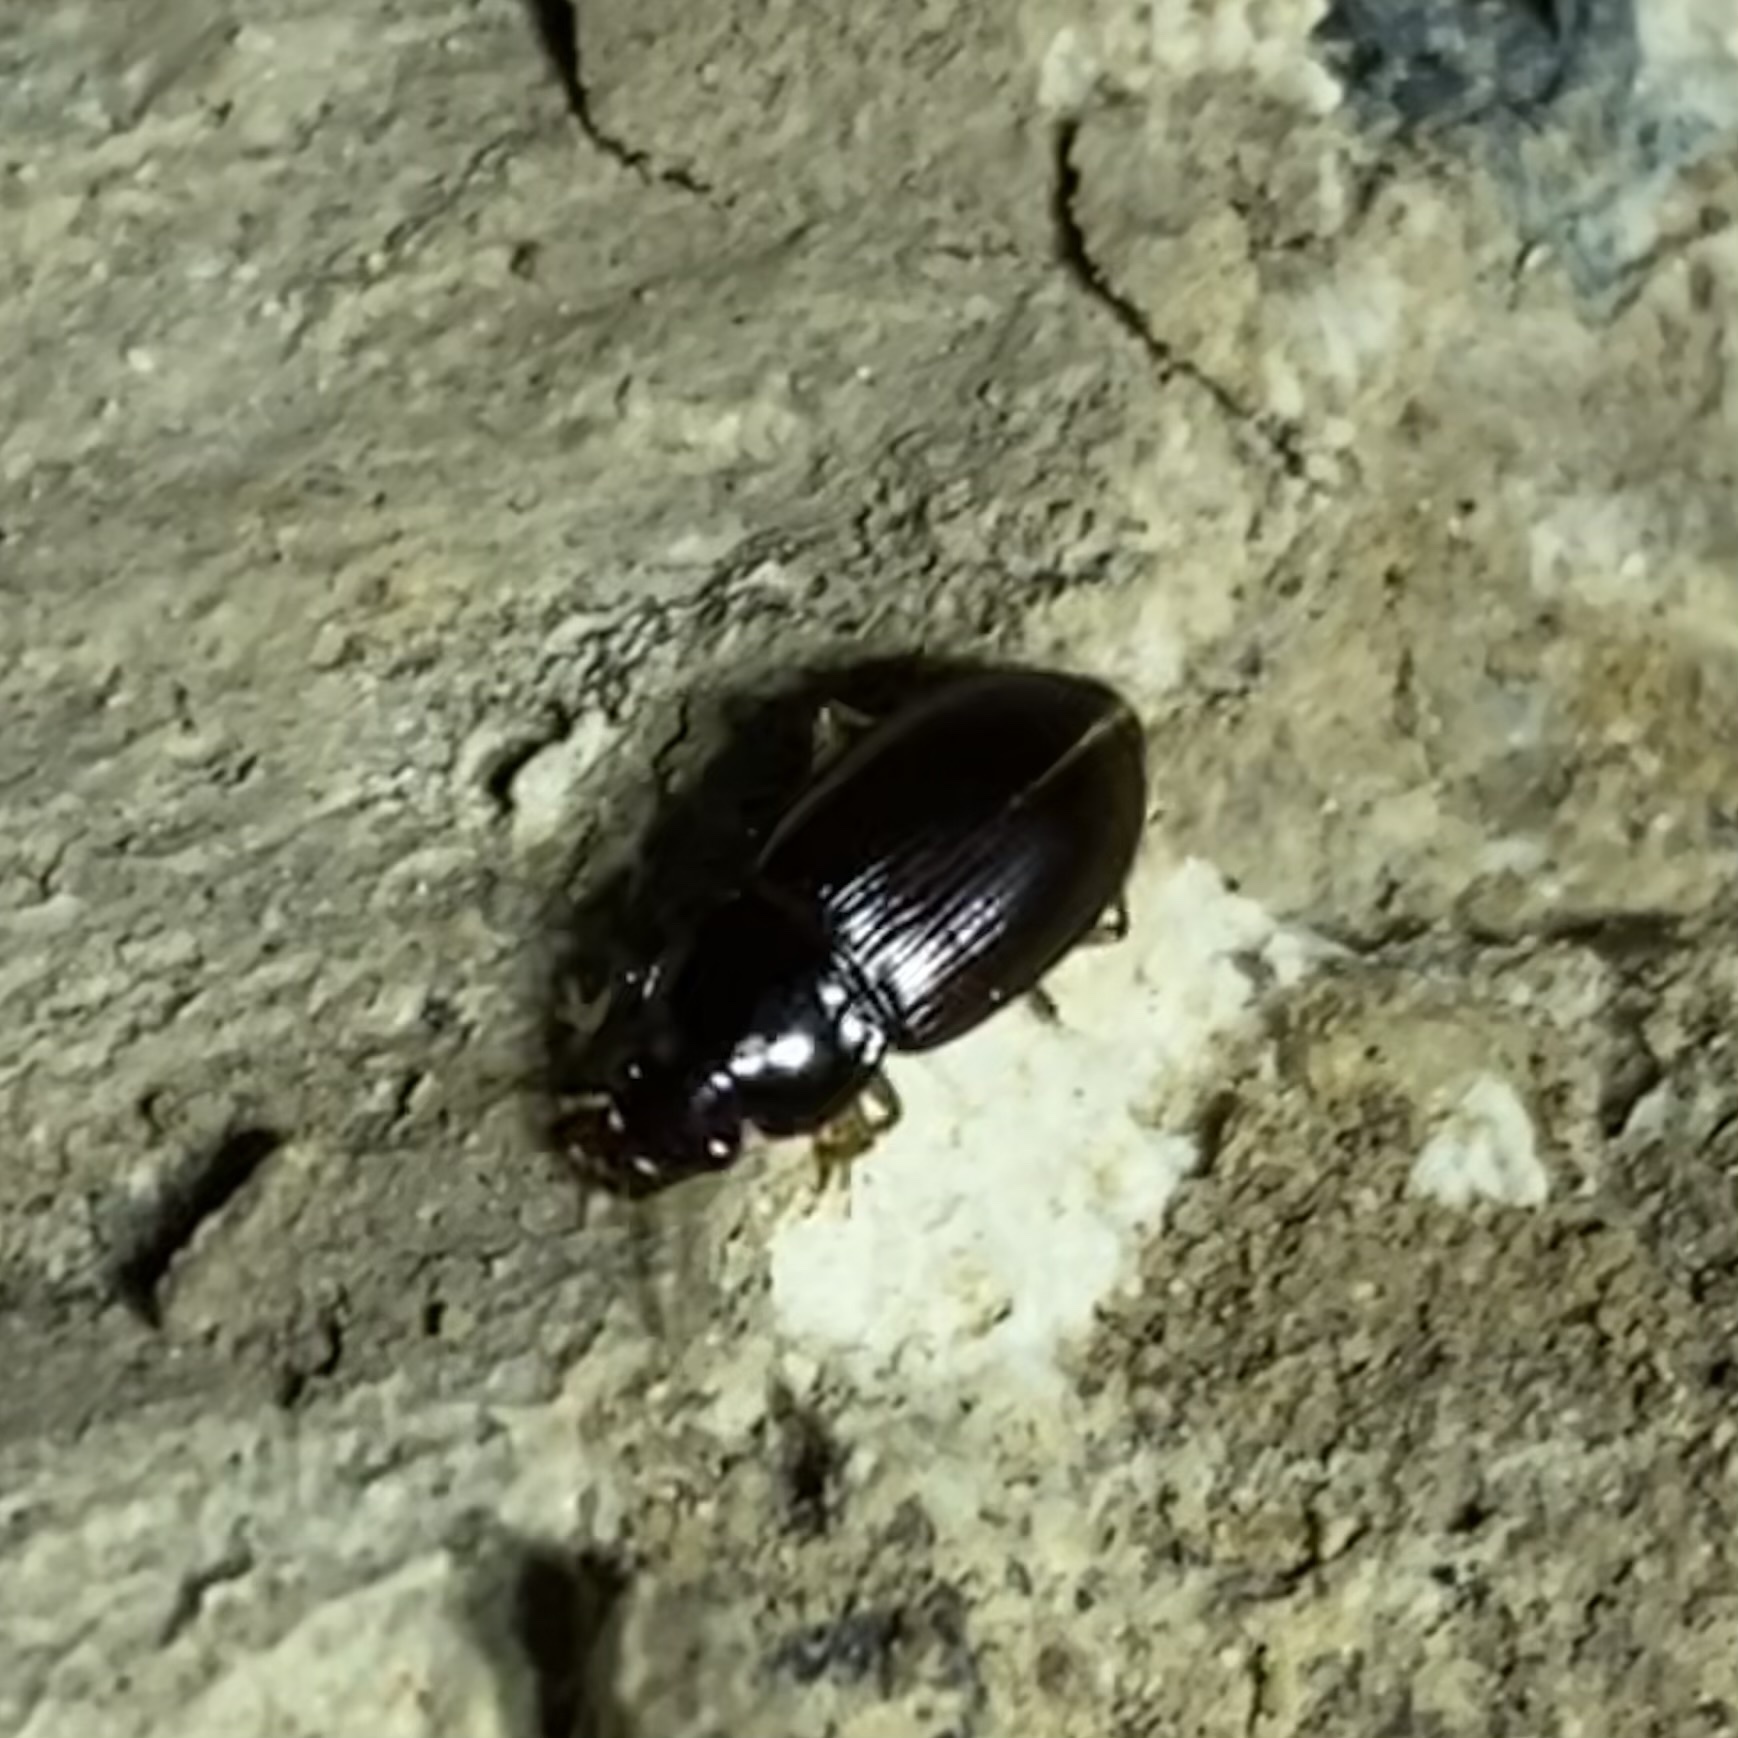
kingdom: Animalia
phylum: Arthropoda
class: Insecta
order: Coleoptera
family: Carabidae
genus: Notiobia
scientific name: Notiobia
